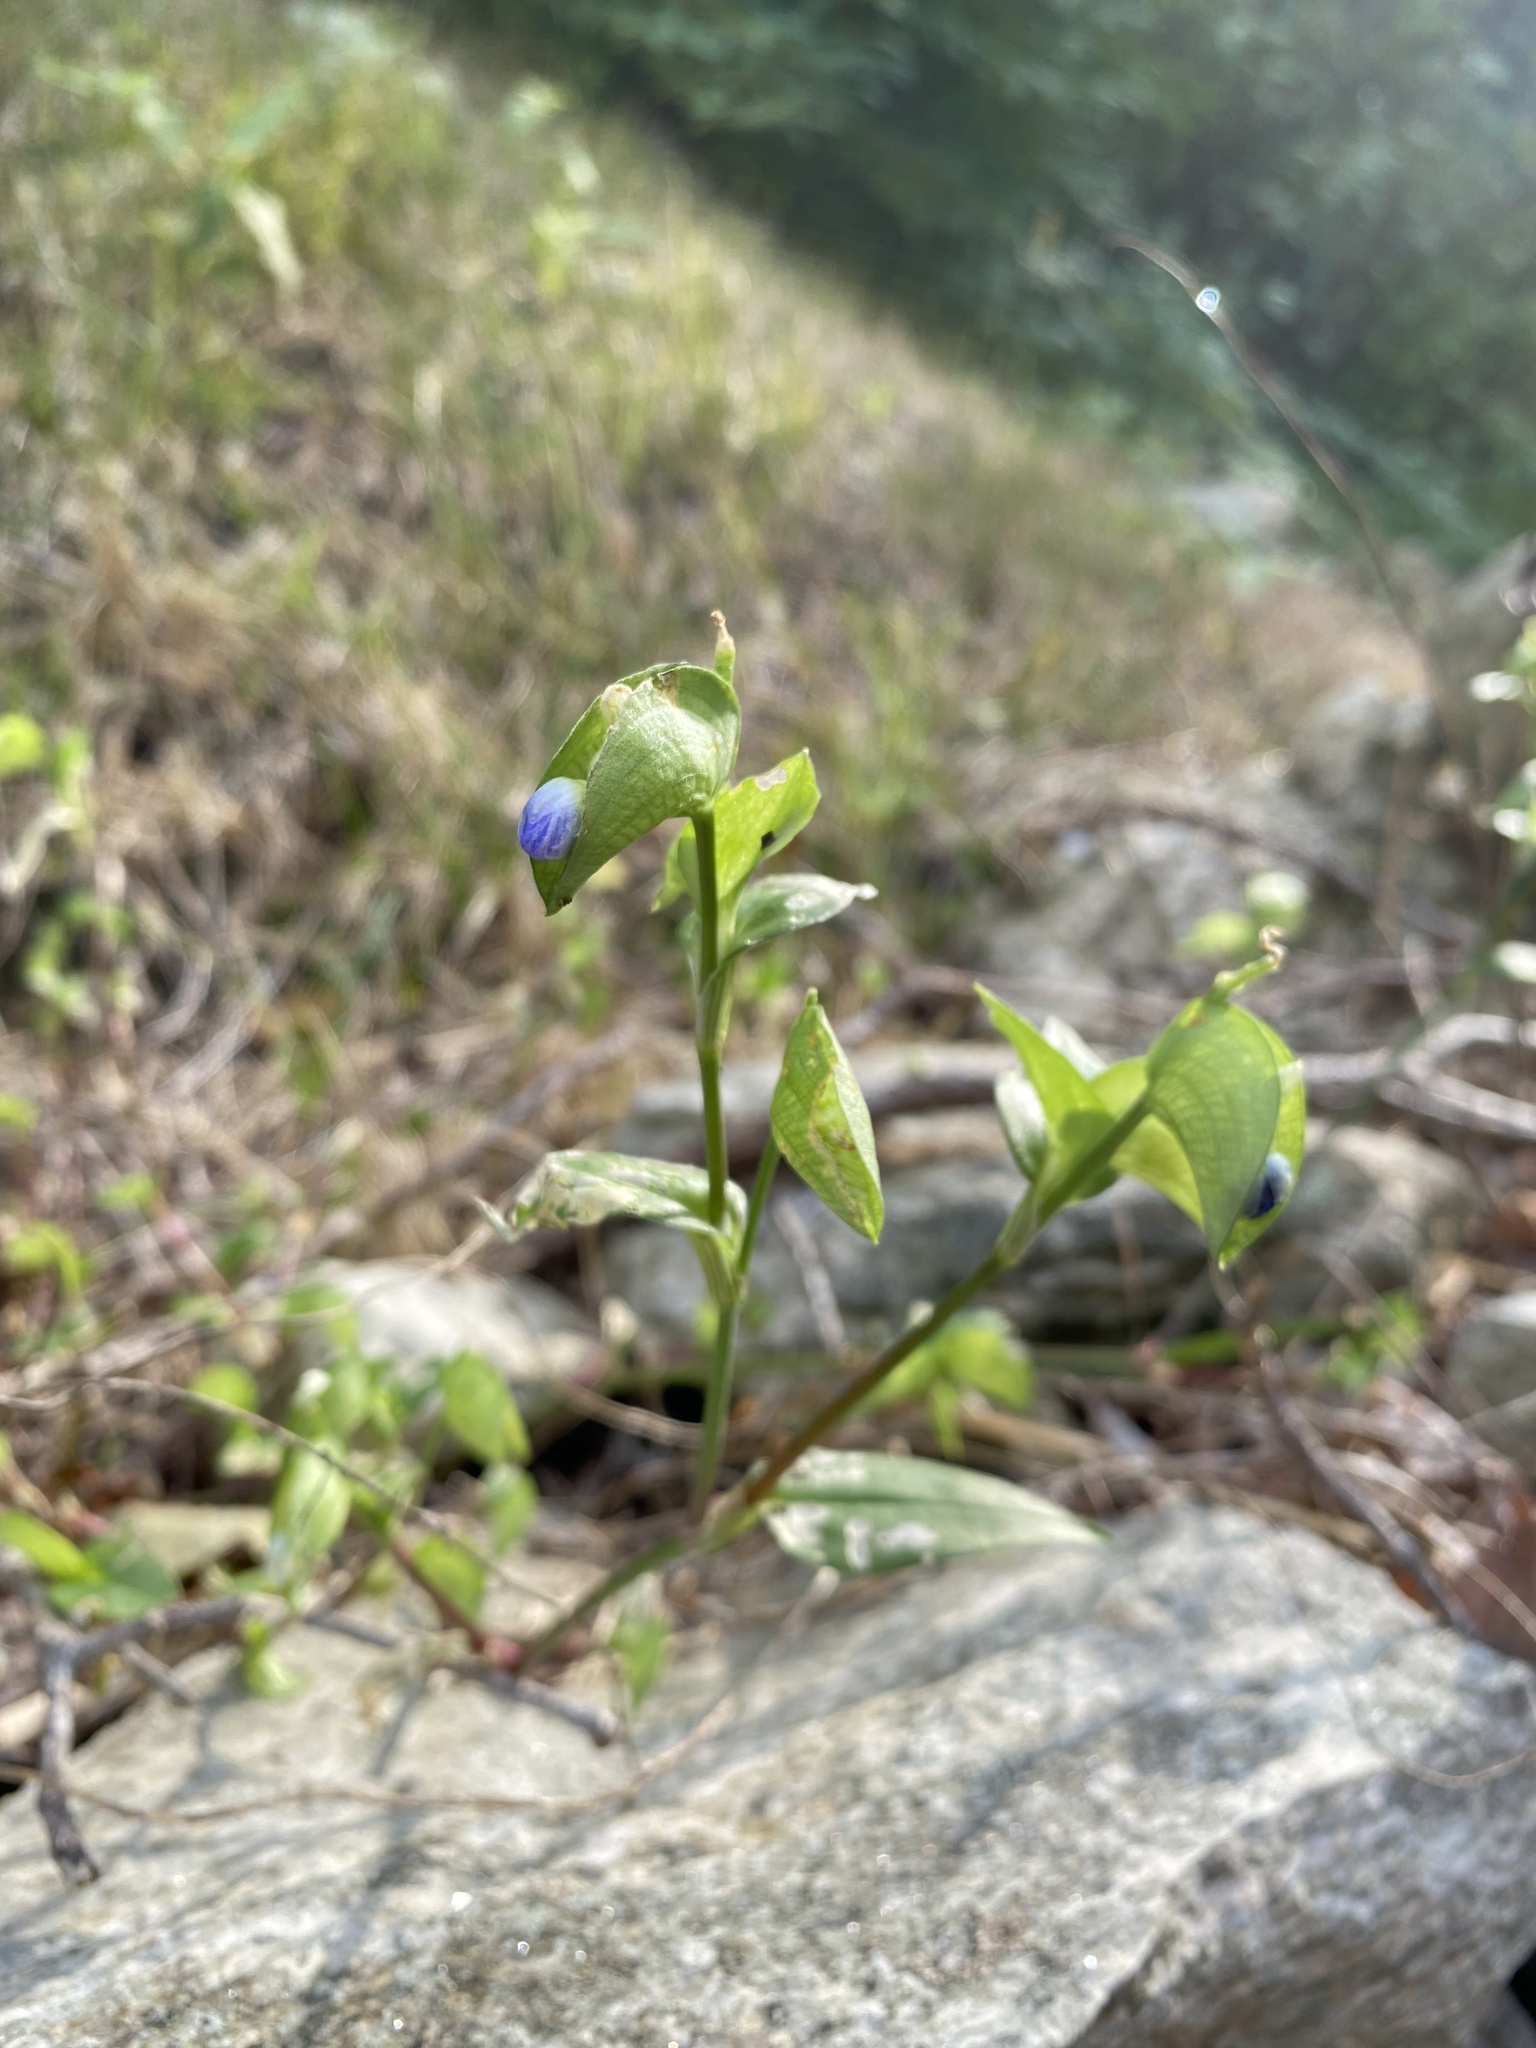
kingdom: Plantae
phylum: Tracheophyta
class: Liliopsida
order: Commelinales
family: Commelinaceae
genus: Commelina
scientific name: Commelina communis
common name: Asiatic dayflower
